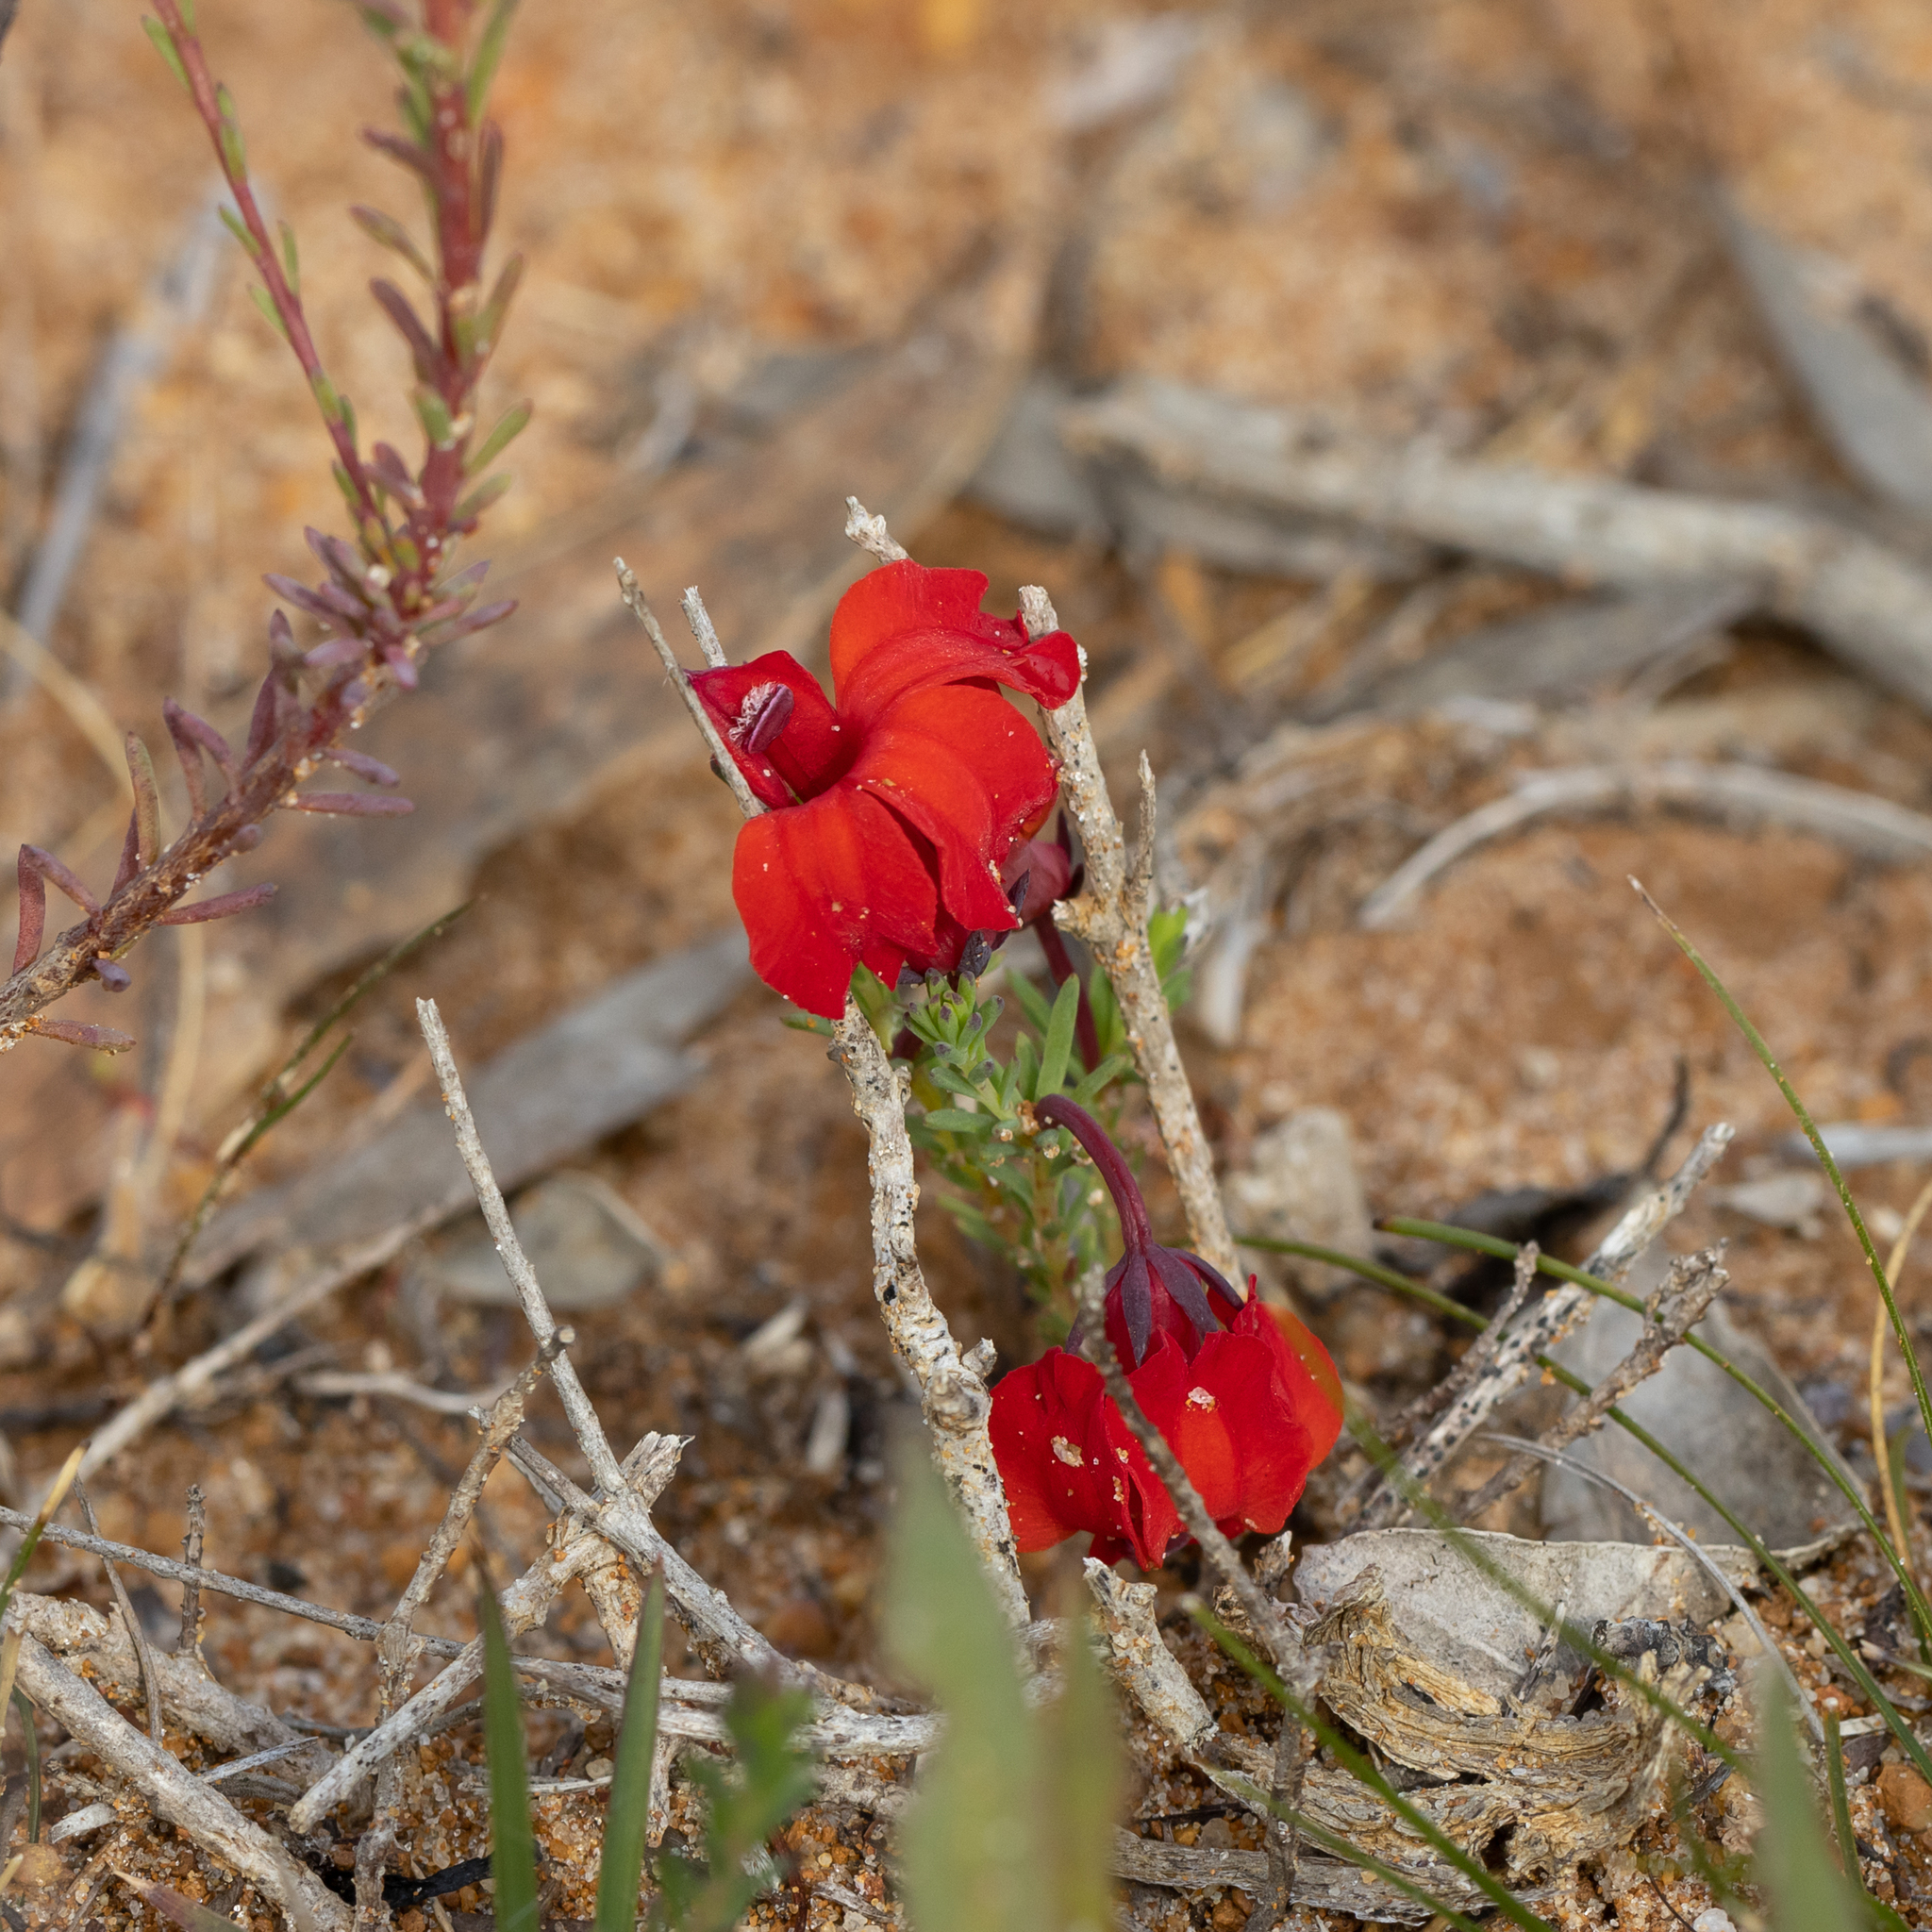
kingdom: Plantae
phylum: Tracheophyta
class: Magnoliopsida
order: Asterales
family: Goodeniaceae
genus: Lechenaultia
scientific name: Lechenaultia formosa
